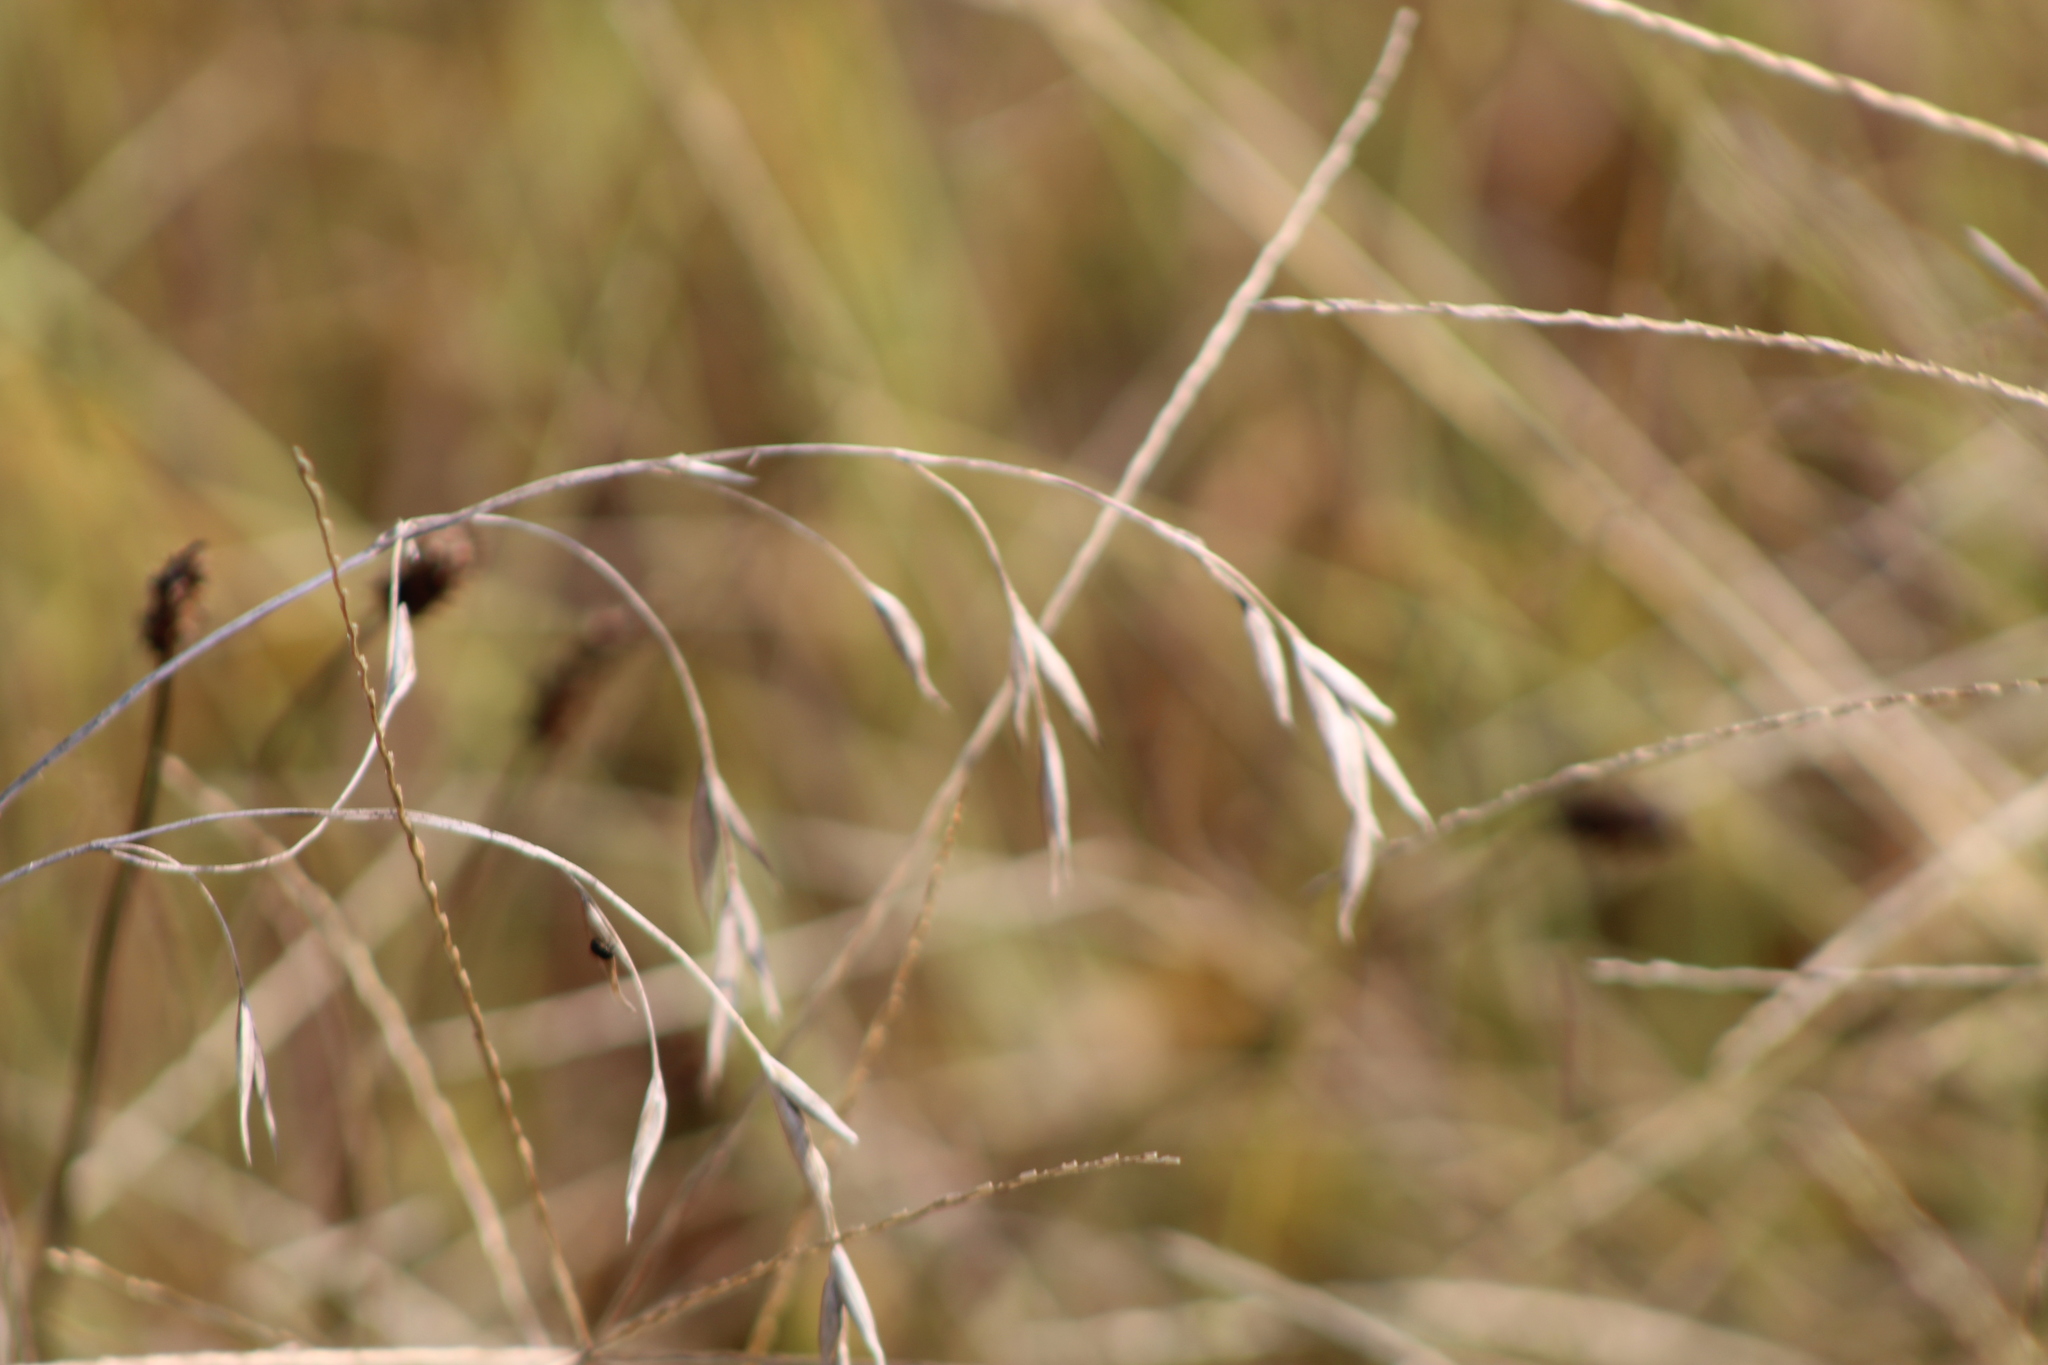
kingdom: Plantae
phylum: Tracheophyta
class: Liliopsida
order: Poales
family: Poaceae
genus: Bromus
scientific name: Bromus japonicus
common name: Japanese brome
